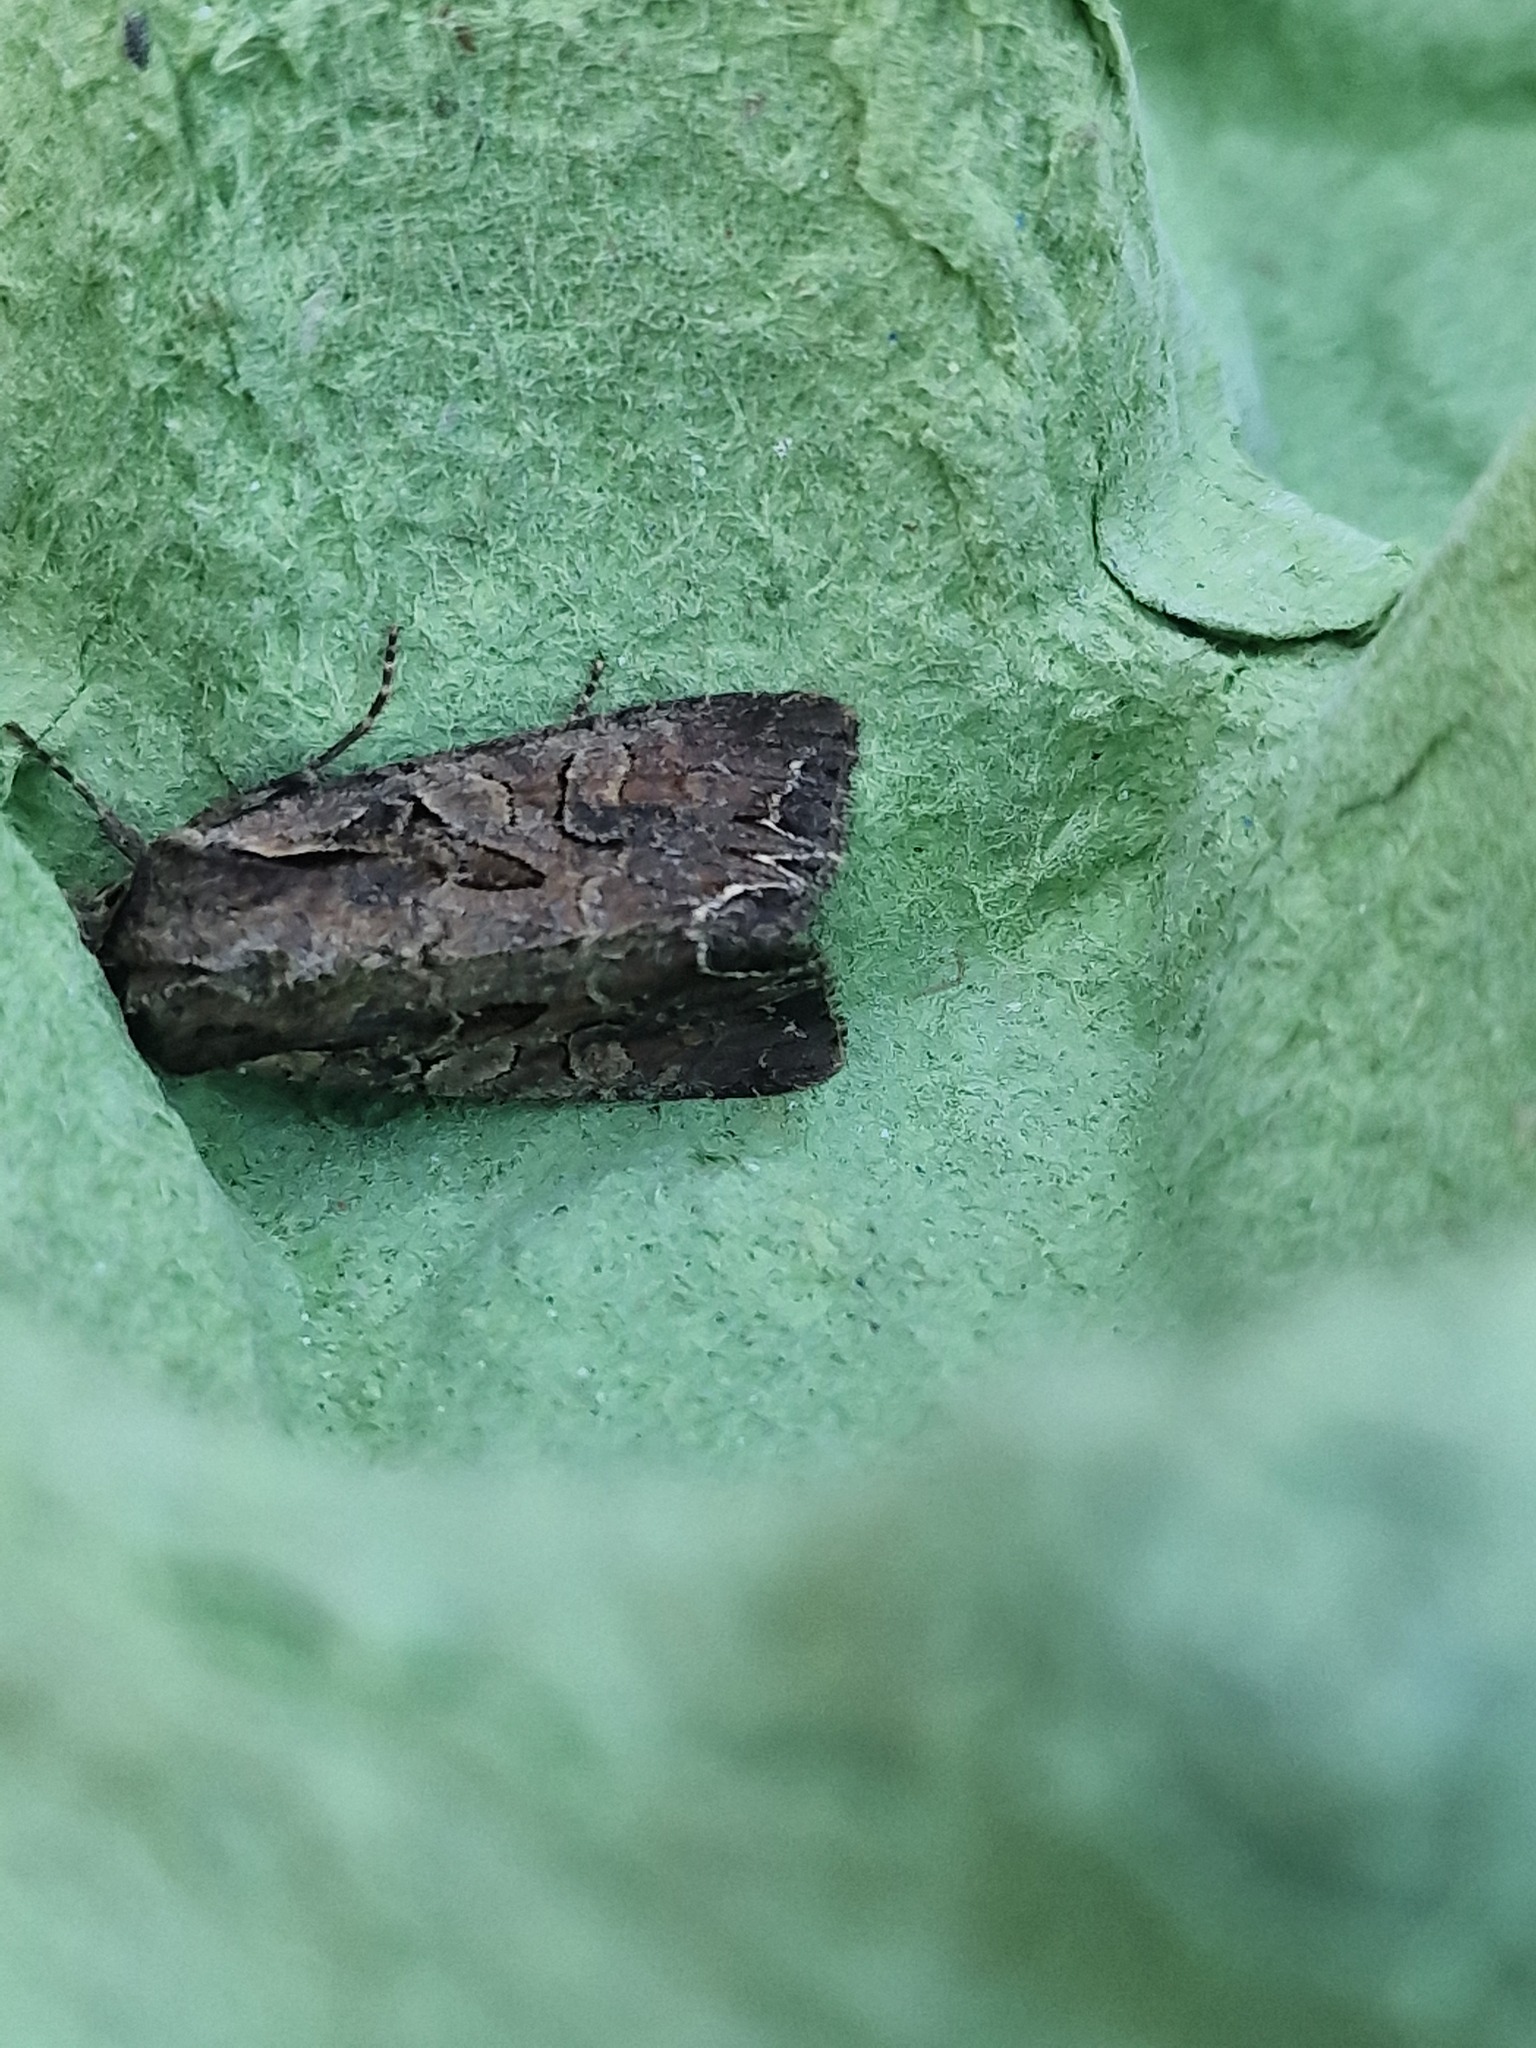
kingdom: Animalia
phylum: Arthropoda
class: Insecta
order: Lepidoptera
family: Noctuidae
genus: Lacanobia
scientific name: Lacanobia suasa
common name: Dog's tooth
